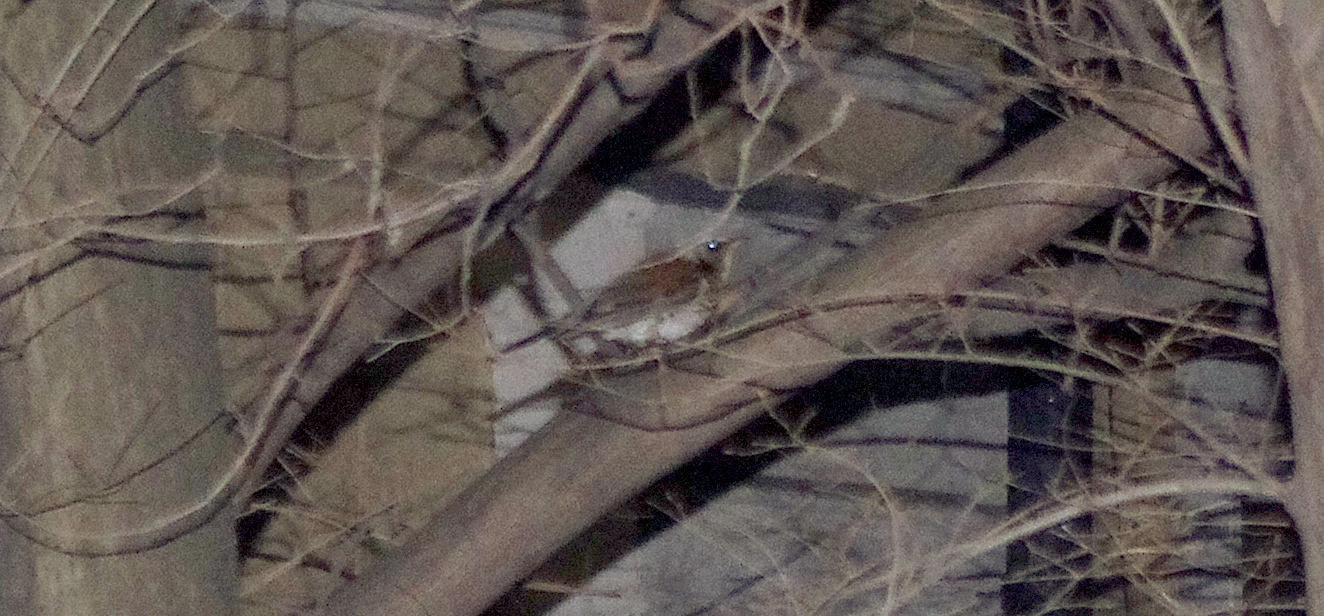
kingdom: Animalia
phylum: Chordata
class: Aves
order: Passeriformes
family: Turdidae
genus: Turdus
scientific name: Turdus pilaris
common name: Fieldfare
